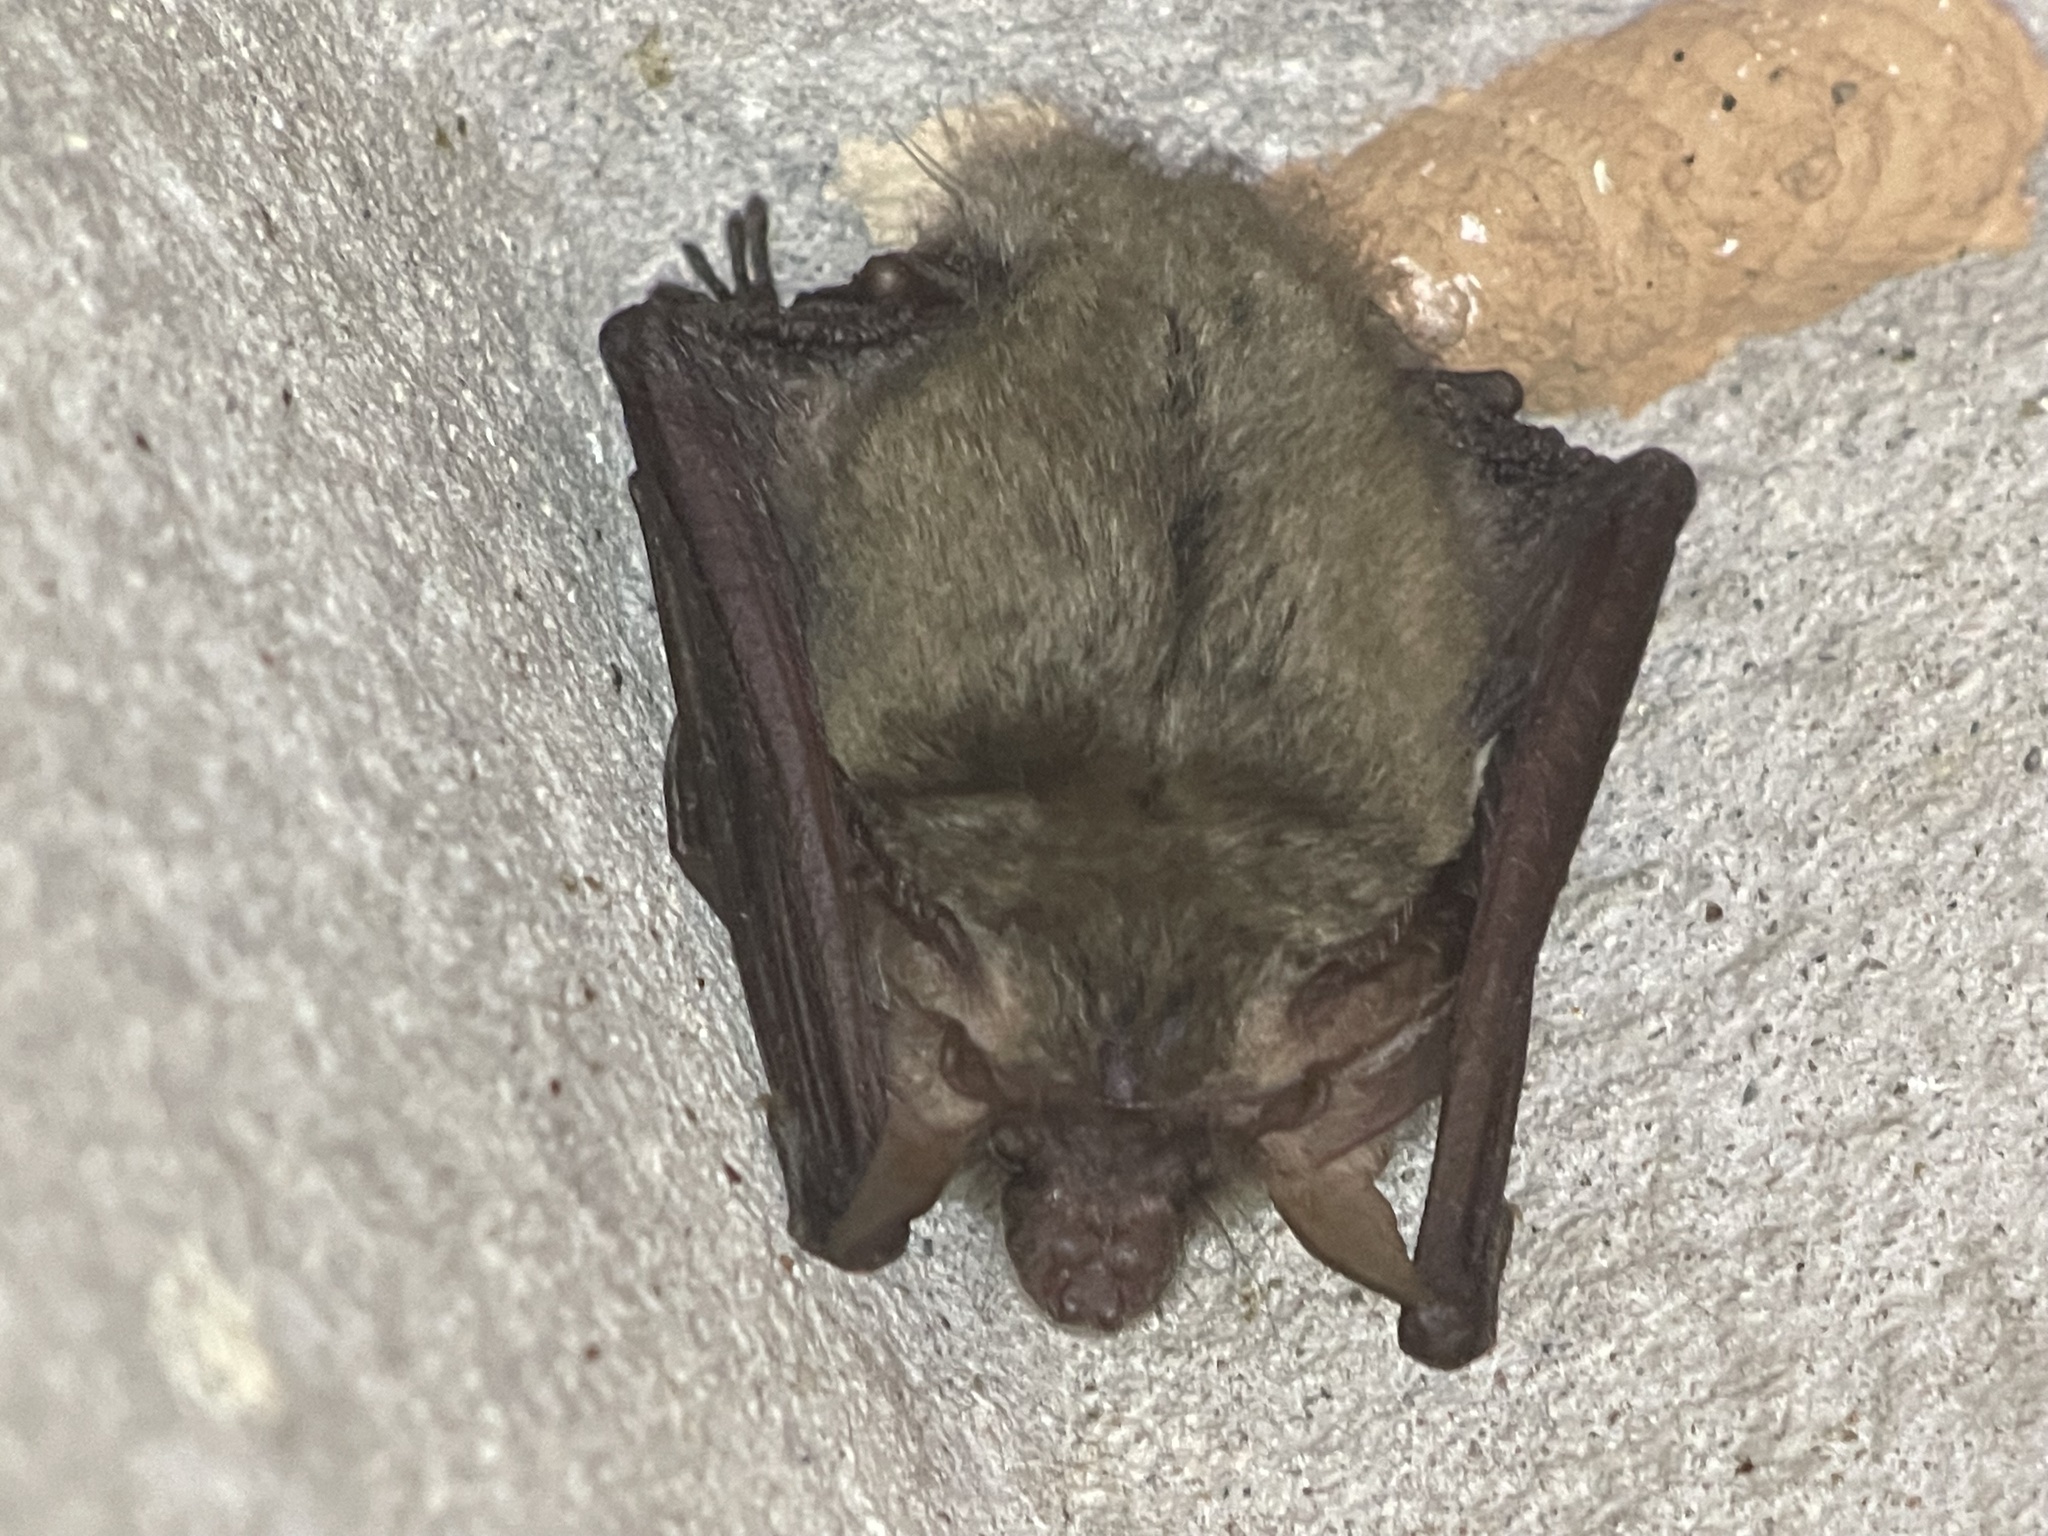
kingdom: Animalia
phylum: Chordata
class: Mammalia
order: Chiroptera
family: Vespertilionidae
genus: Plecotus
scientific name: Plecotus gaisleri
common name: Gaisler's big-eared bat
